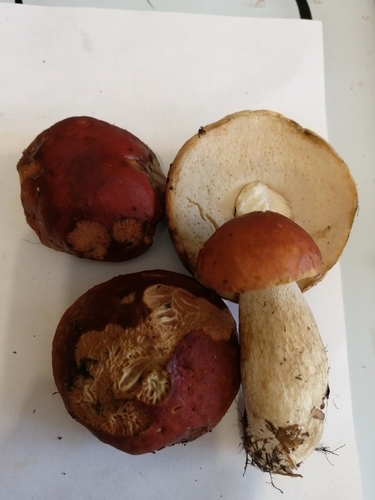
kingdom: Fungi
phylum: Basidiomycota
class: Agaricomycetes
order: Boletales
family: Boletaceae
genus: Boletus
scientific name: Boletus edulis
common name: Cep
